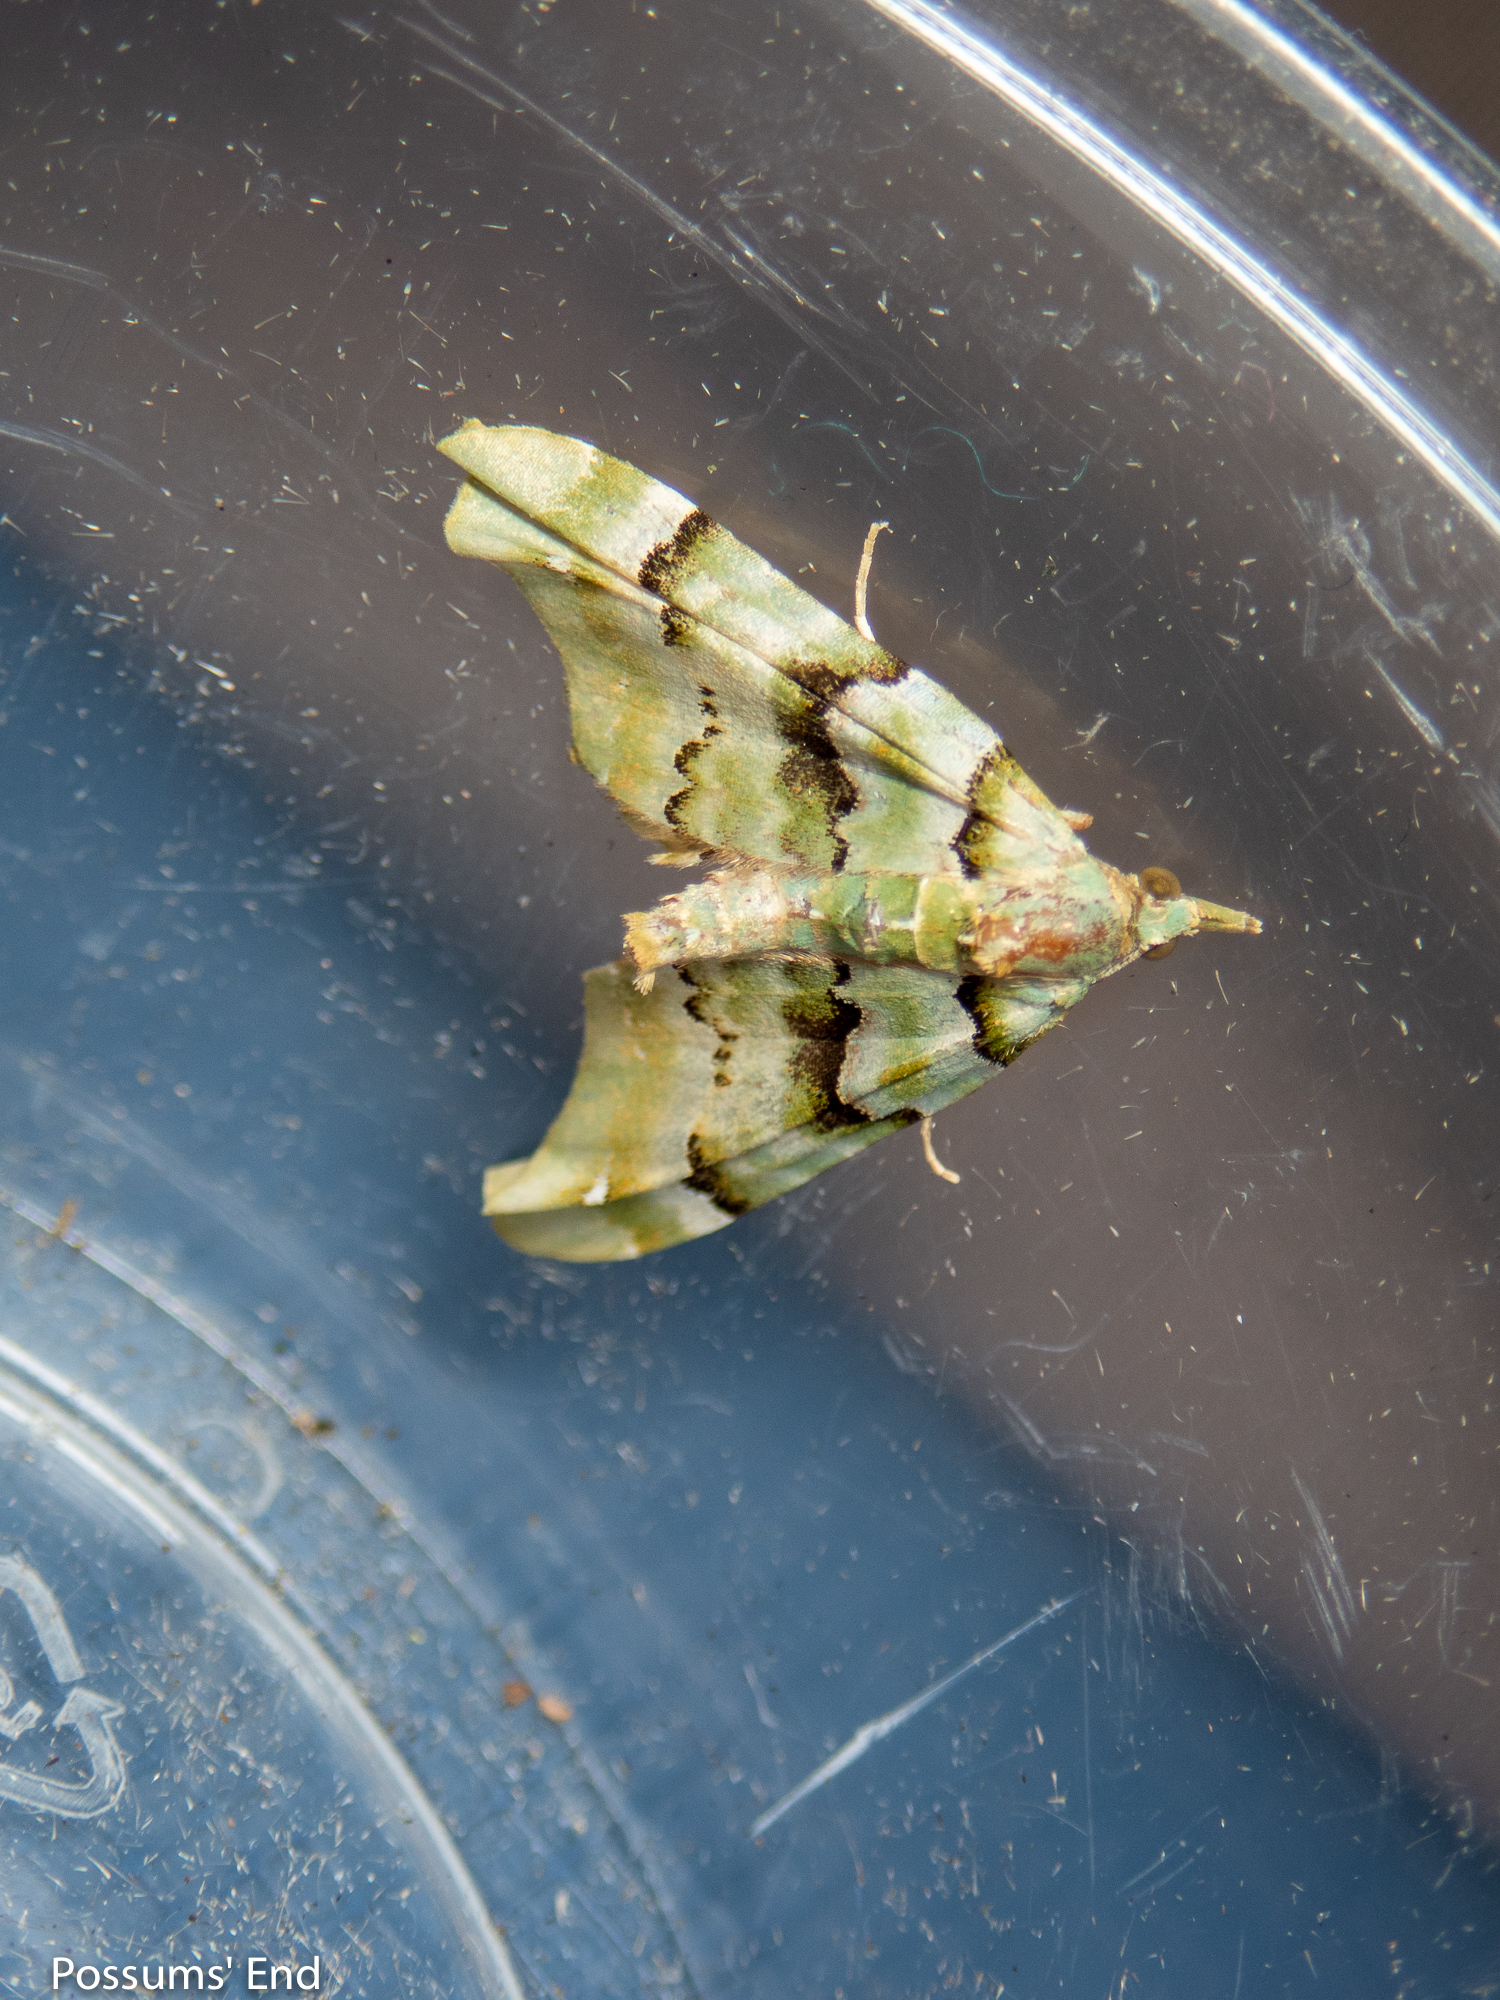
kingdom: Animalia
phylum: Arthropoda
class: Insecta
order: Lepidoptera
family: Geometridae
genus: Elvia
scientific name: Elvia glaucata
